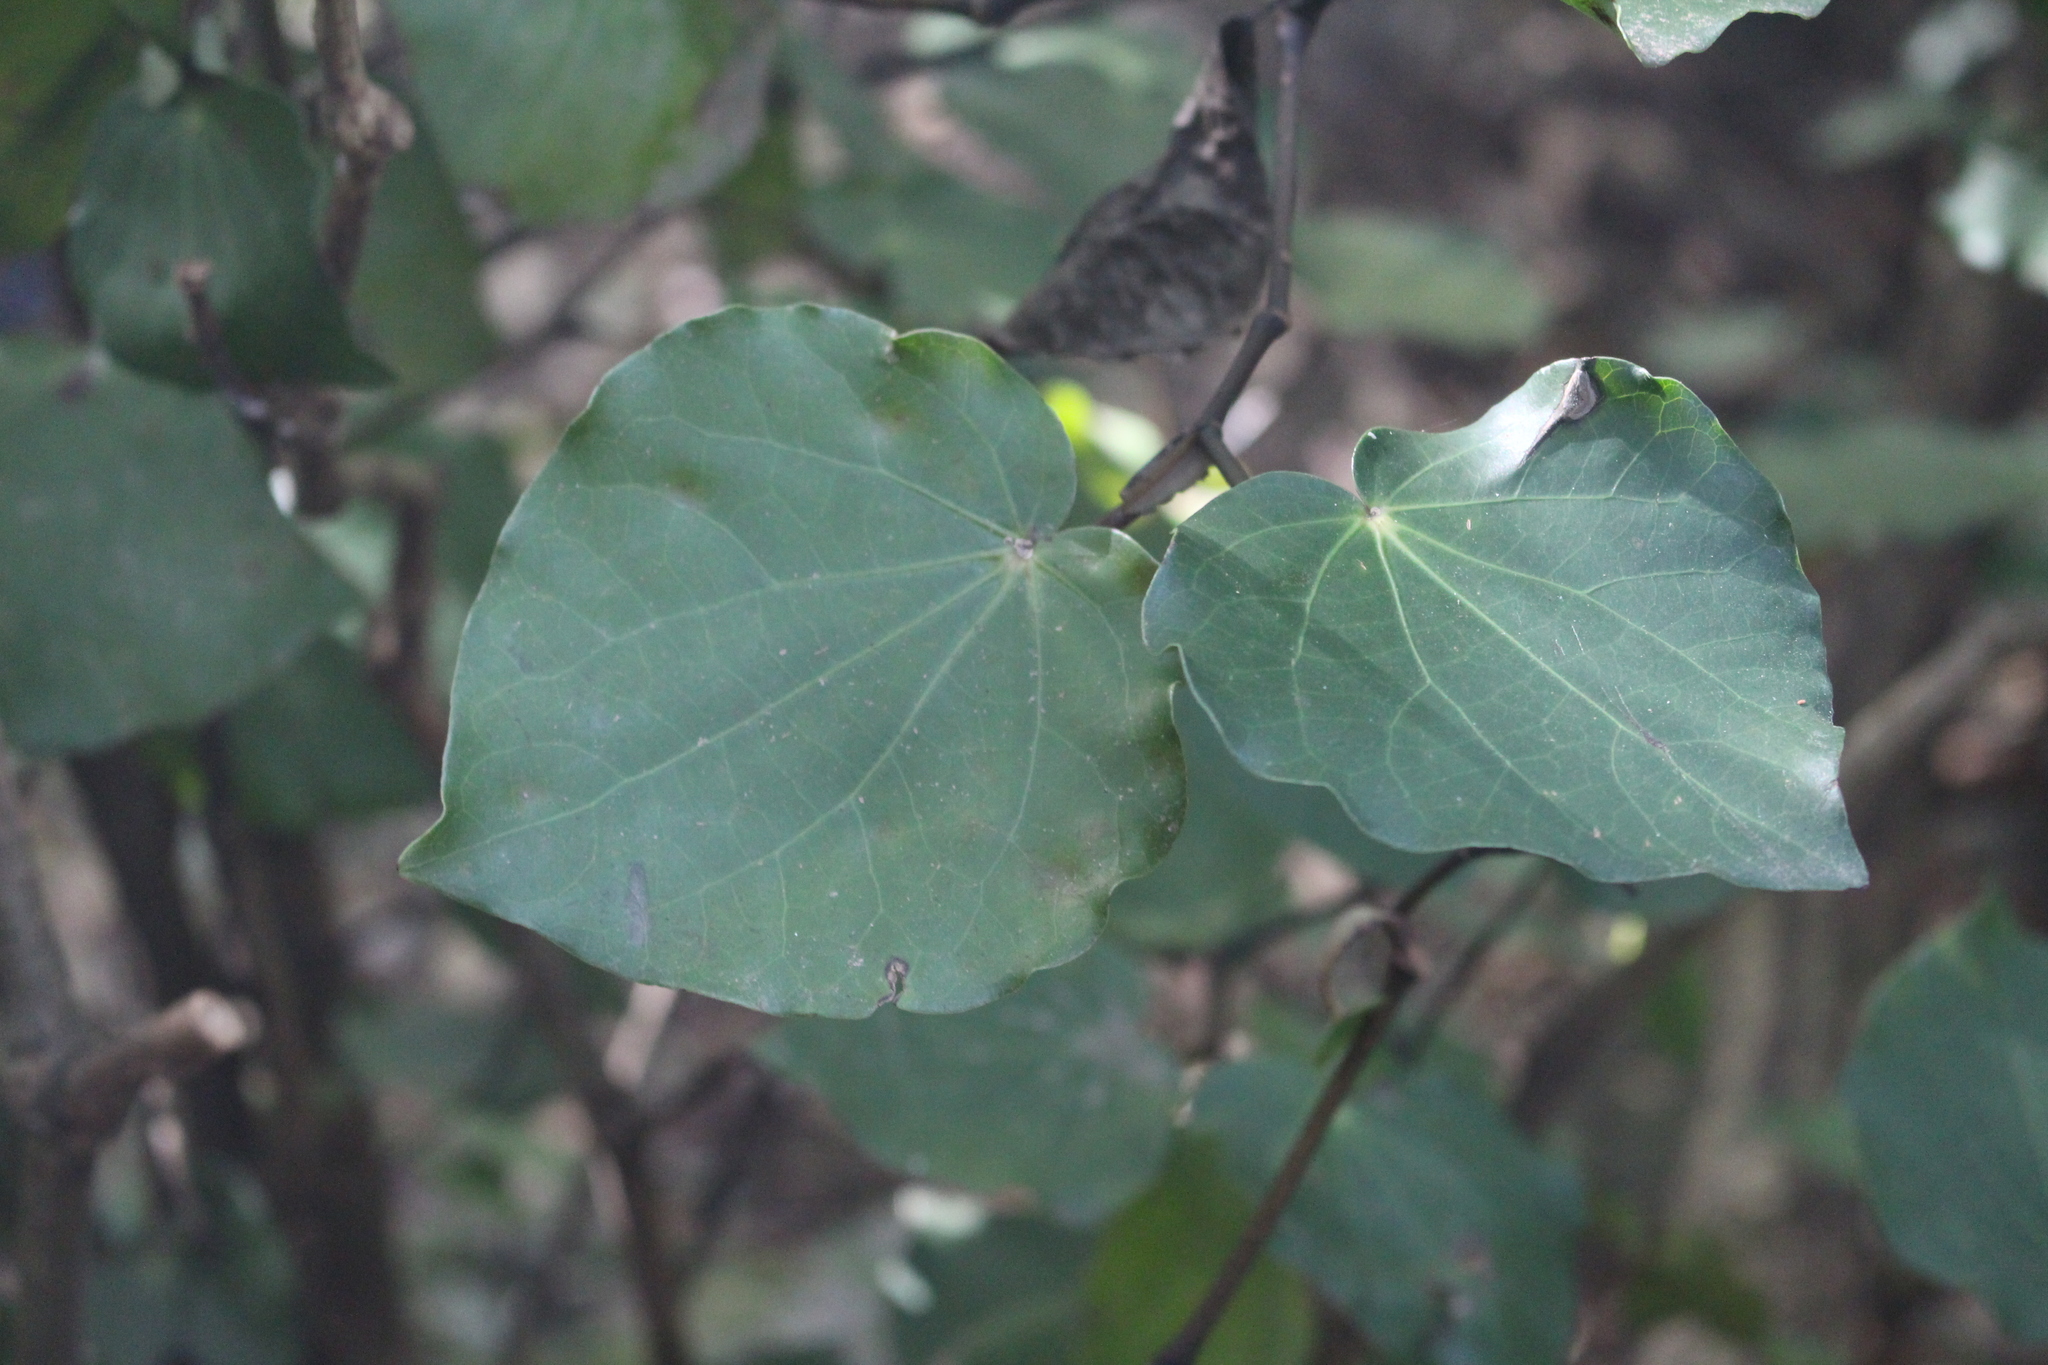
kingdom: Plantae
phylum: Tracheophyta
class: Magnoliopsida
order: Piperales
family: Piperaceae
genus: Macropiper
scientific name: Macropiper excelsum
